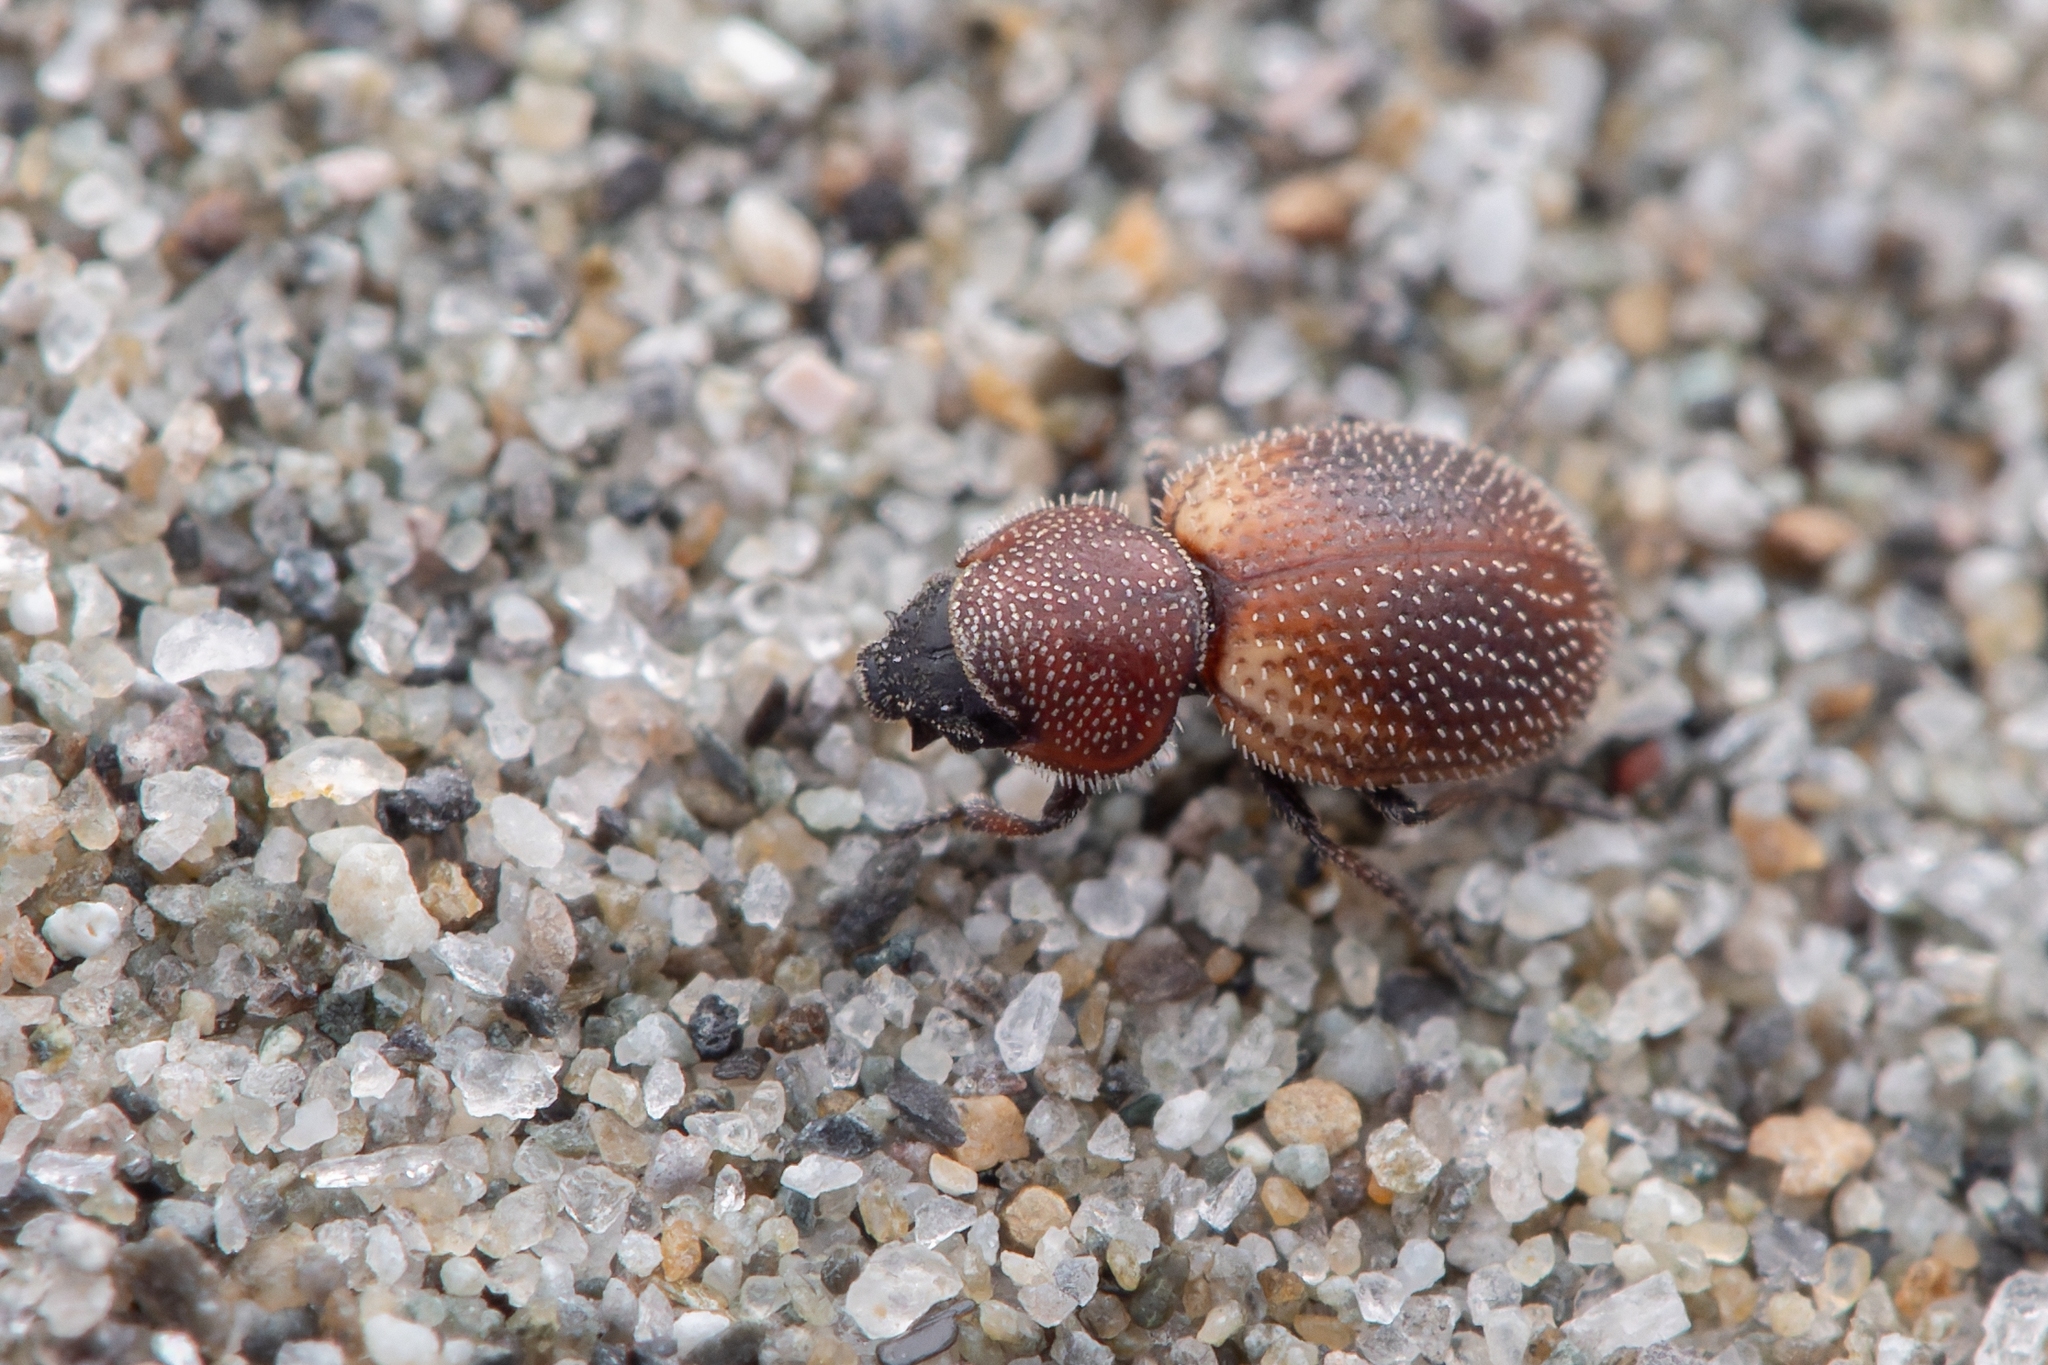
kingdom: Animalia
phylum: Arthropoda
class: Insecta
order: Coleoptera
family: Phycosecidae
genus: Phycosecis
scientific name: Phycosecis
